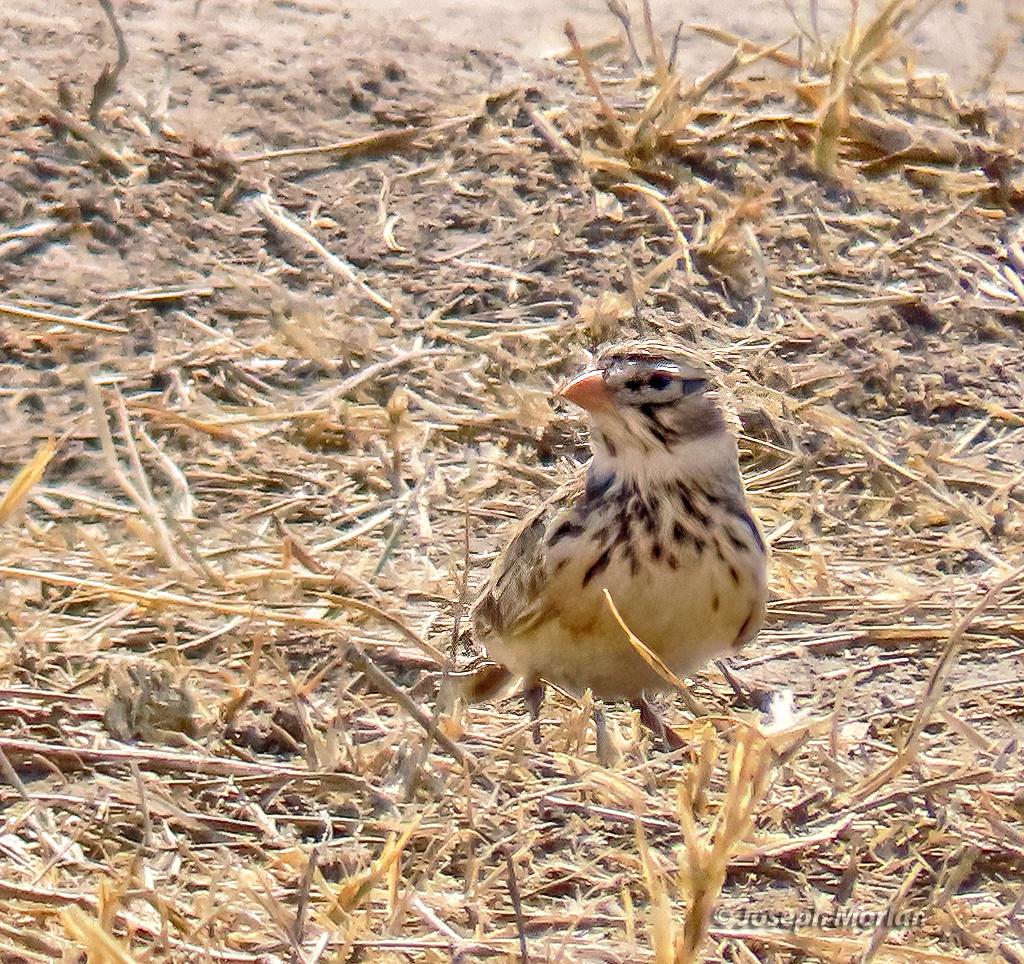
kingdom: Animalia
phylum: Chordata
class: Aves
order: Passeriformes
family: Alaudidae
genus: Spizocorys
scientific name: Spizocorys conirostris
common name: Pink-billed lark
